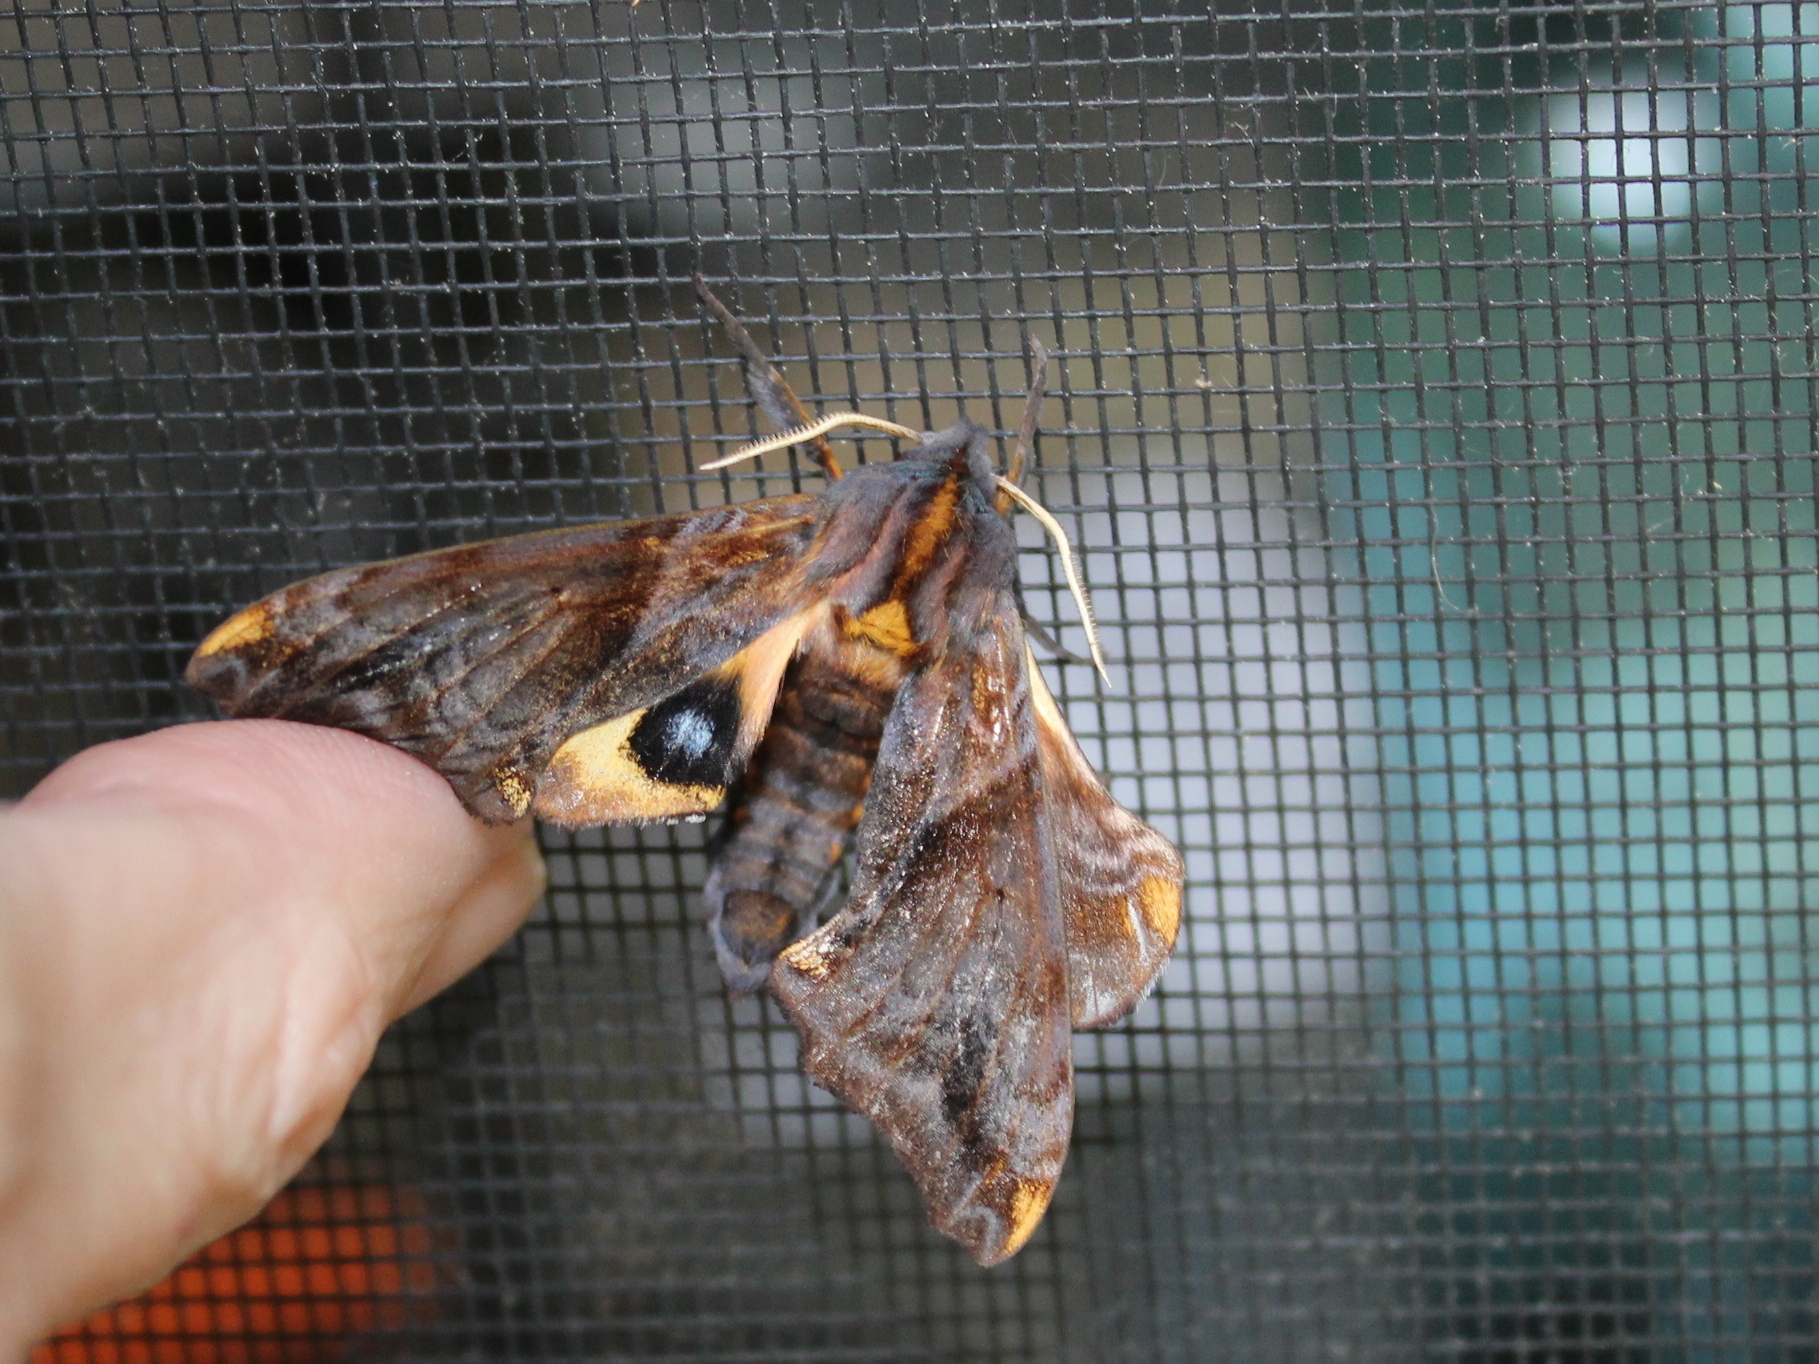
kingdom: Animalia
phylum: Arthropoda
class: Insecta
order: Lepidoptera
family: Sphingidae
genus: Paonias
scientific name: Paonias myops
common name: Small-eyed sphinx
